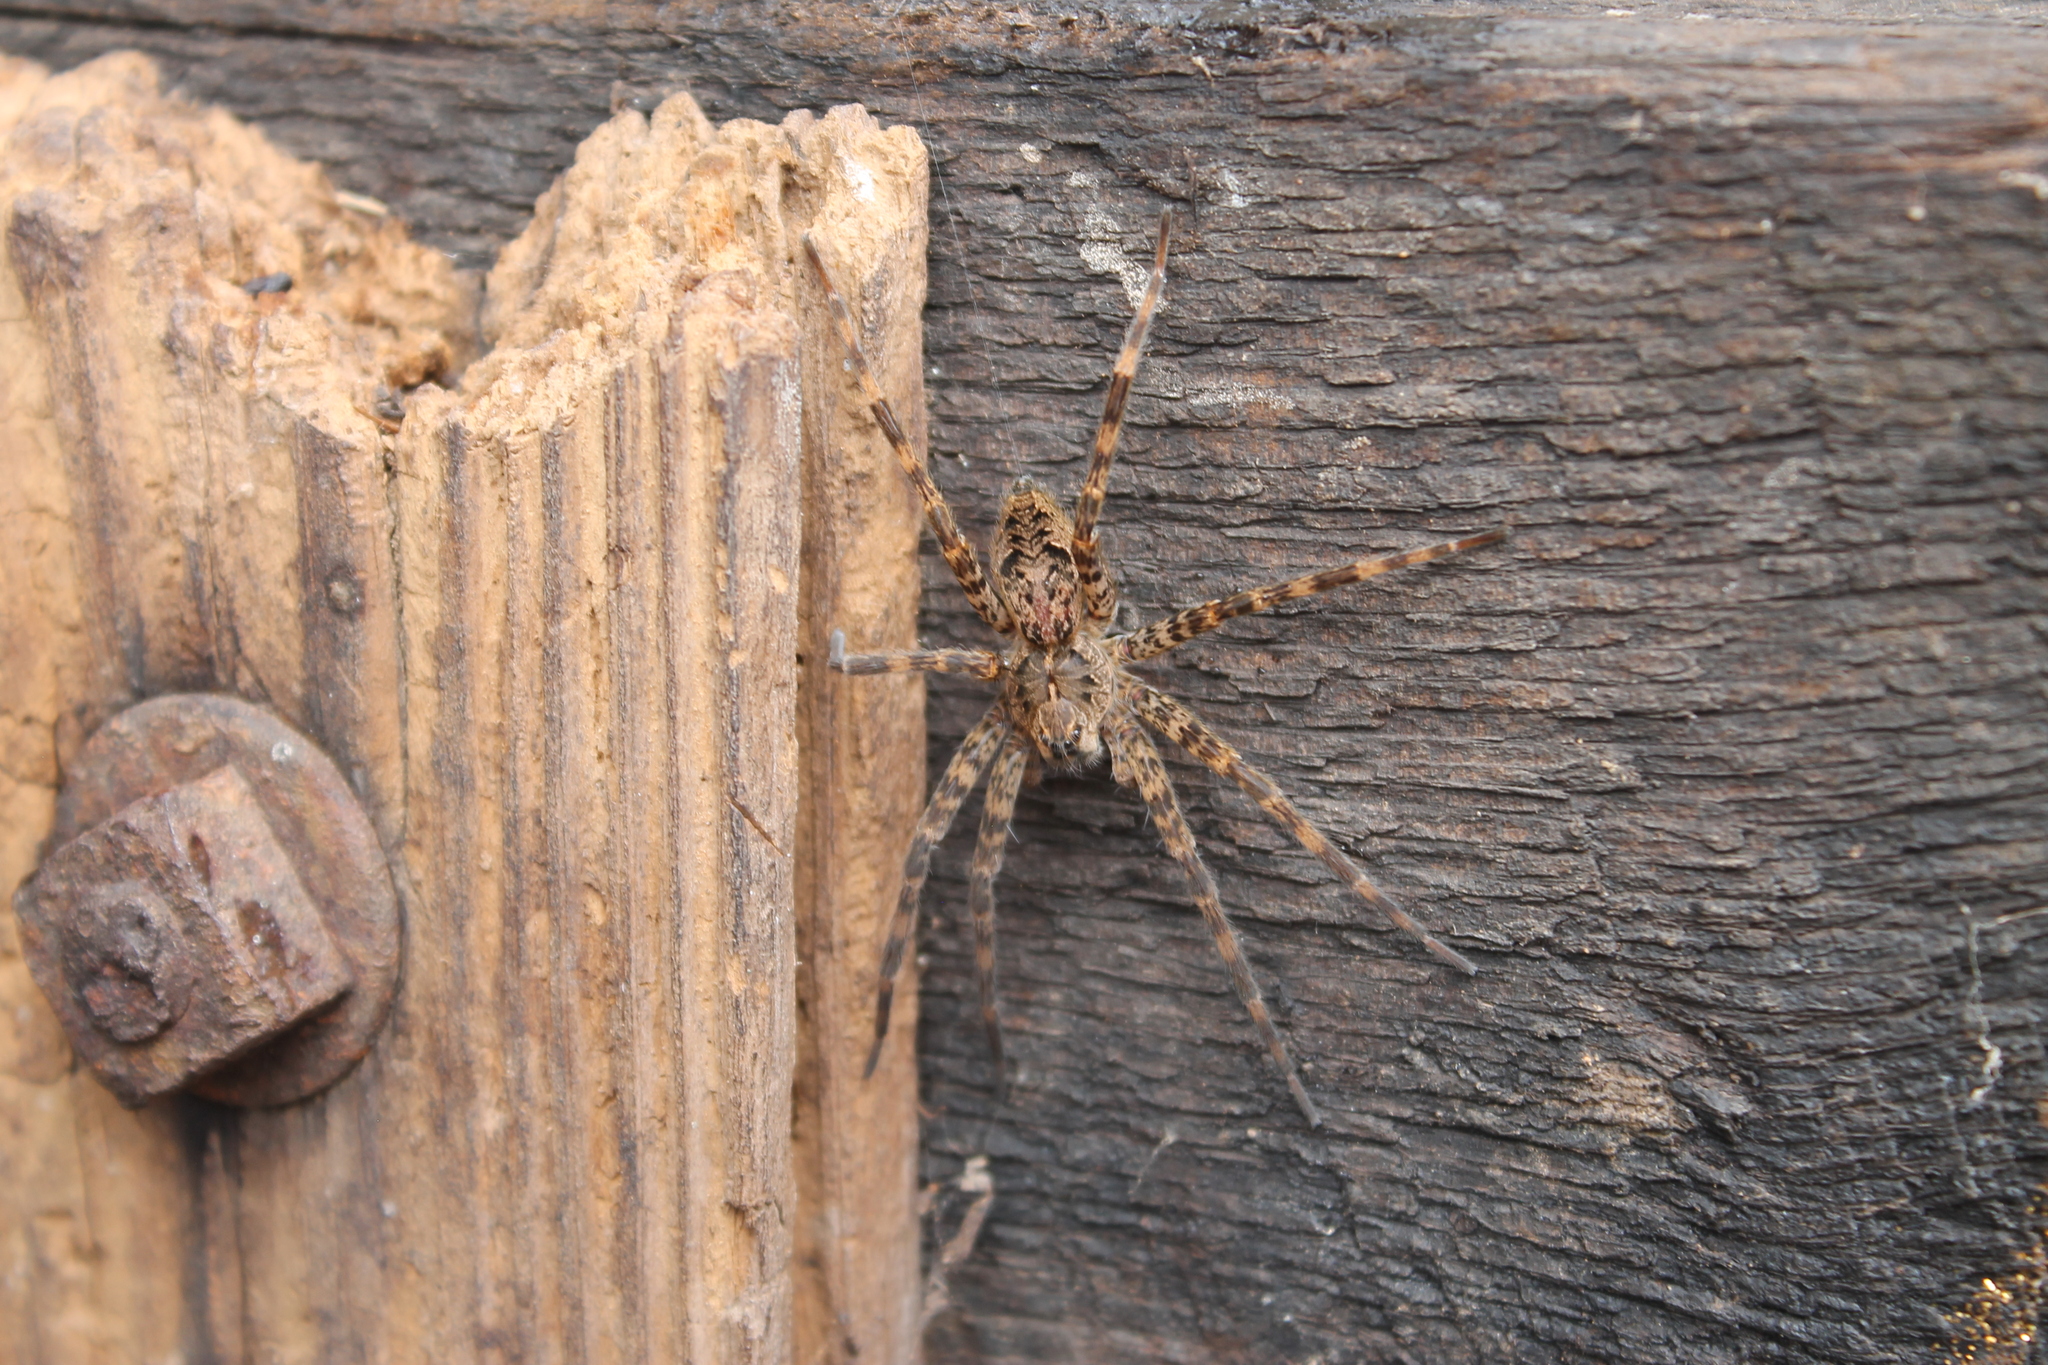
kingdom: Animalia
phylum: Arthropoda
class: Arachnida
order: Araneae
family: Pisauridae
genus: Dolomedes
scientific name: Dolomedes tenebrosus
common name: Dark fishing spider
